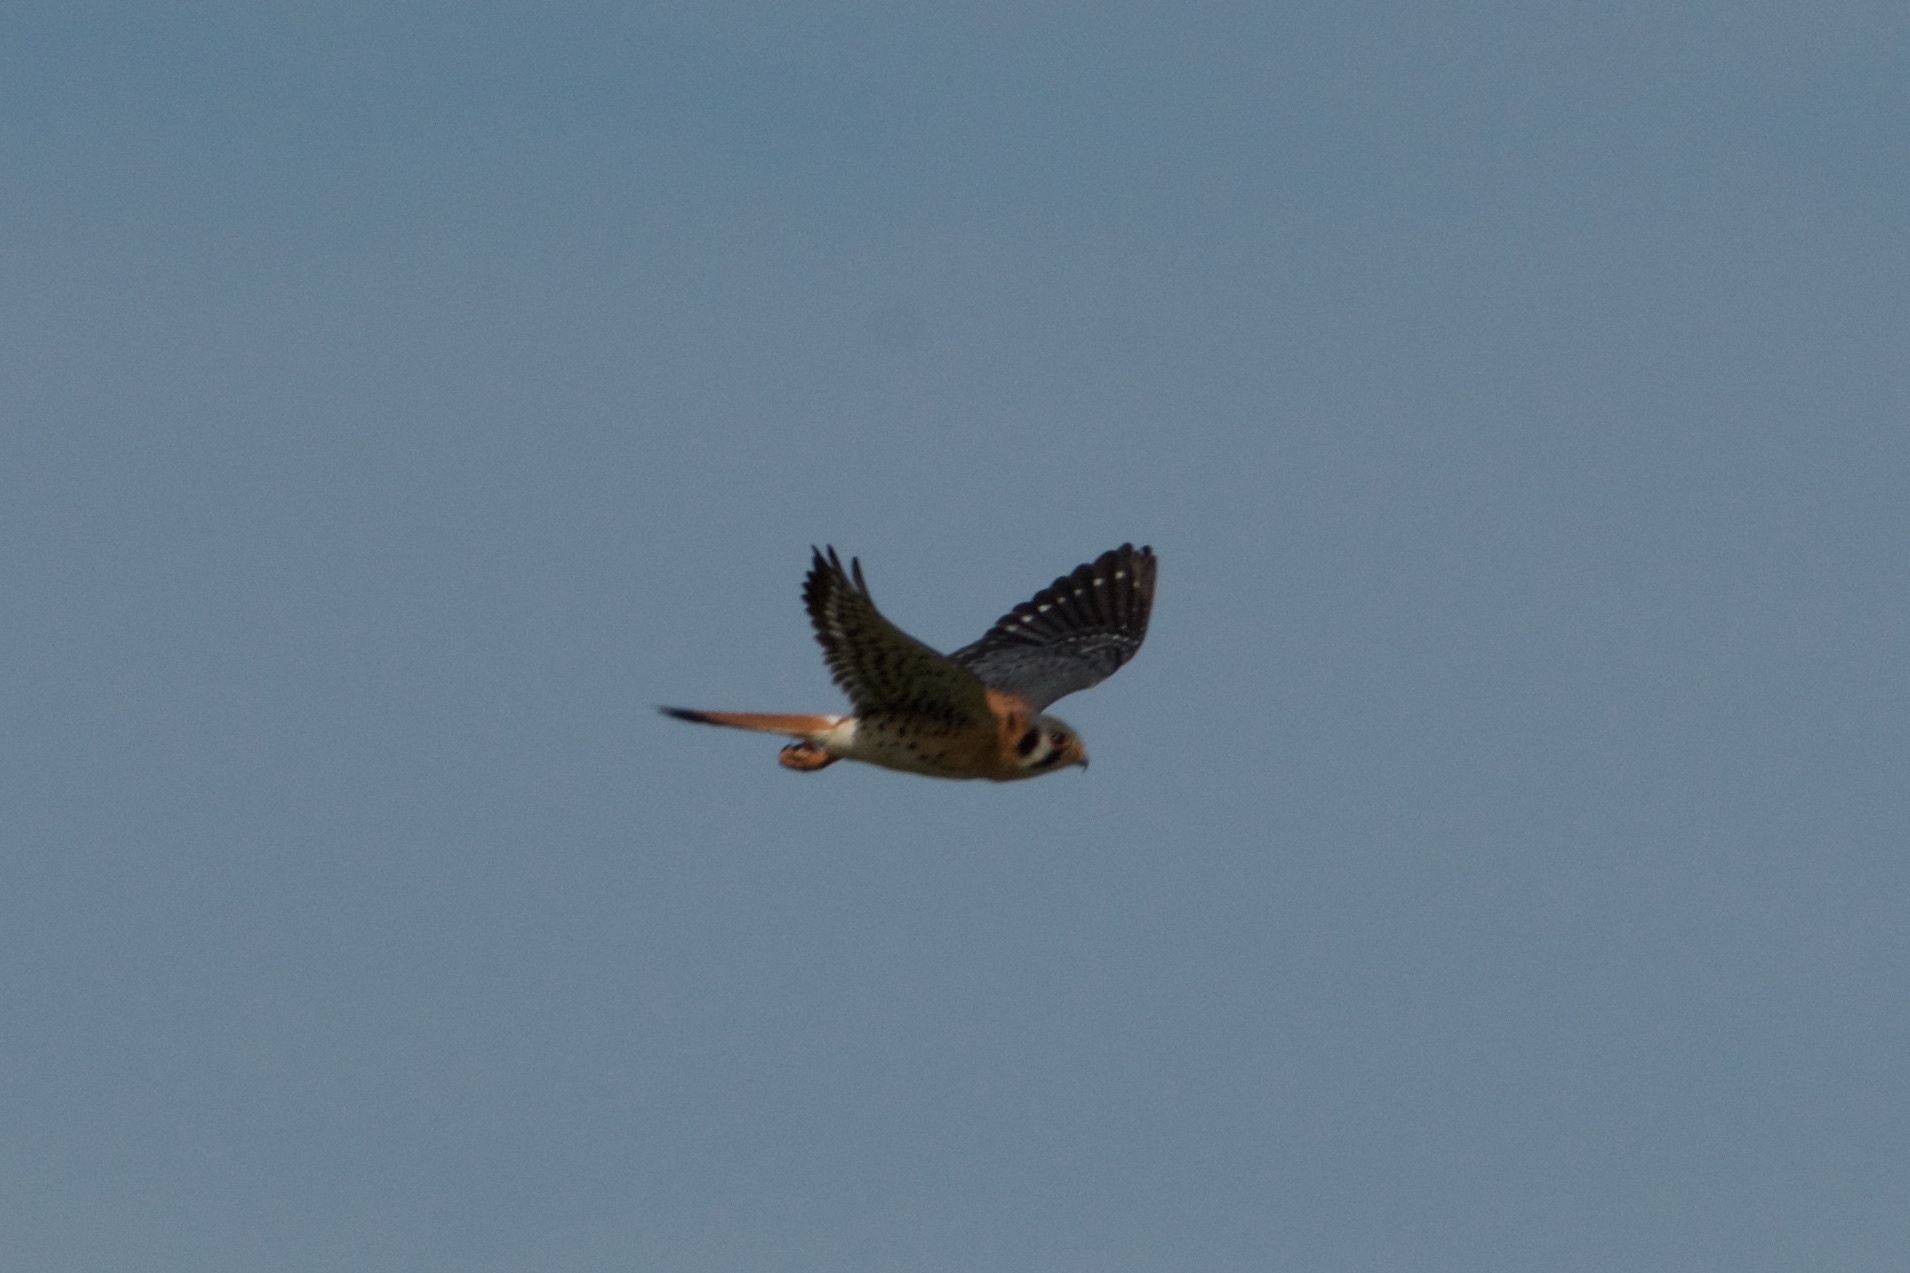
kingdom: Animalia
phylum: Chordata
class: Aves
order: Falconiformes
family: Falconidae
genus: Falco
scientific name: Falco sparverius
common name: American kestrel
